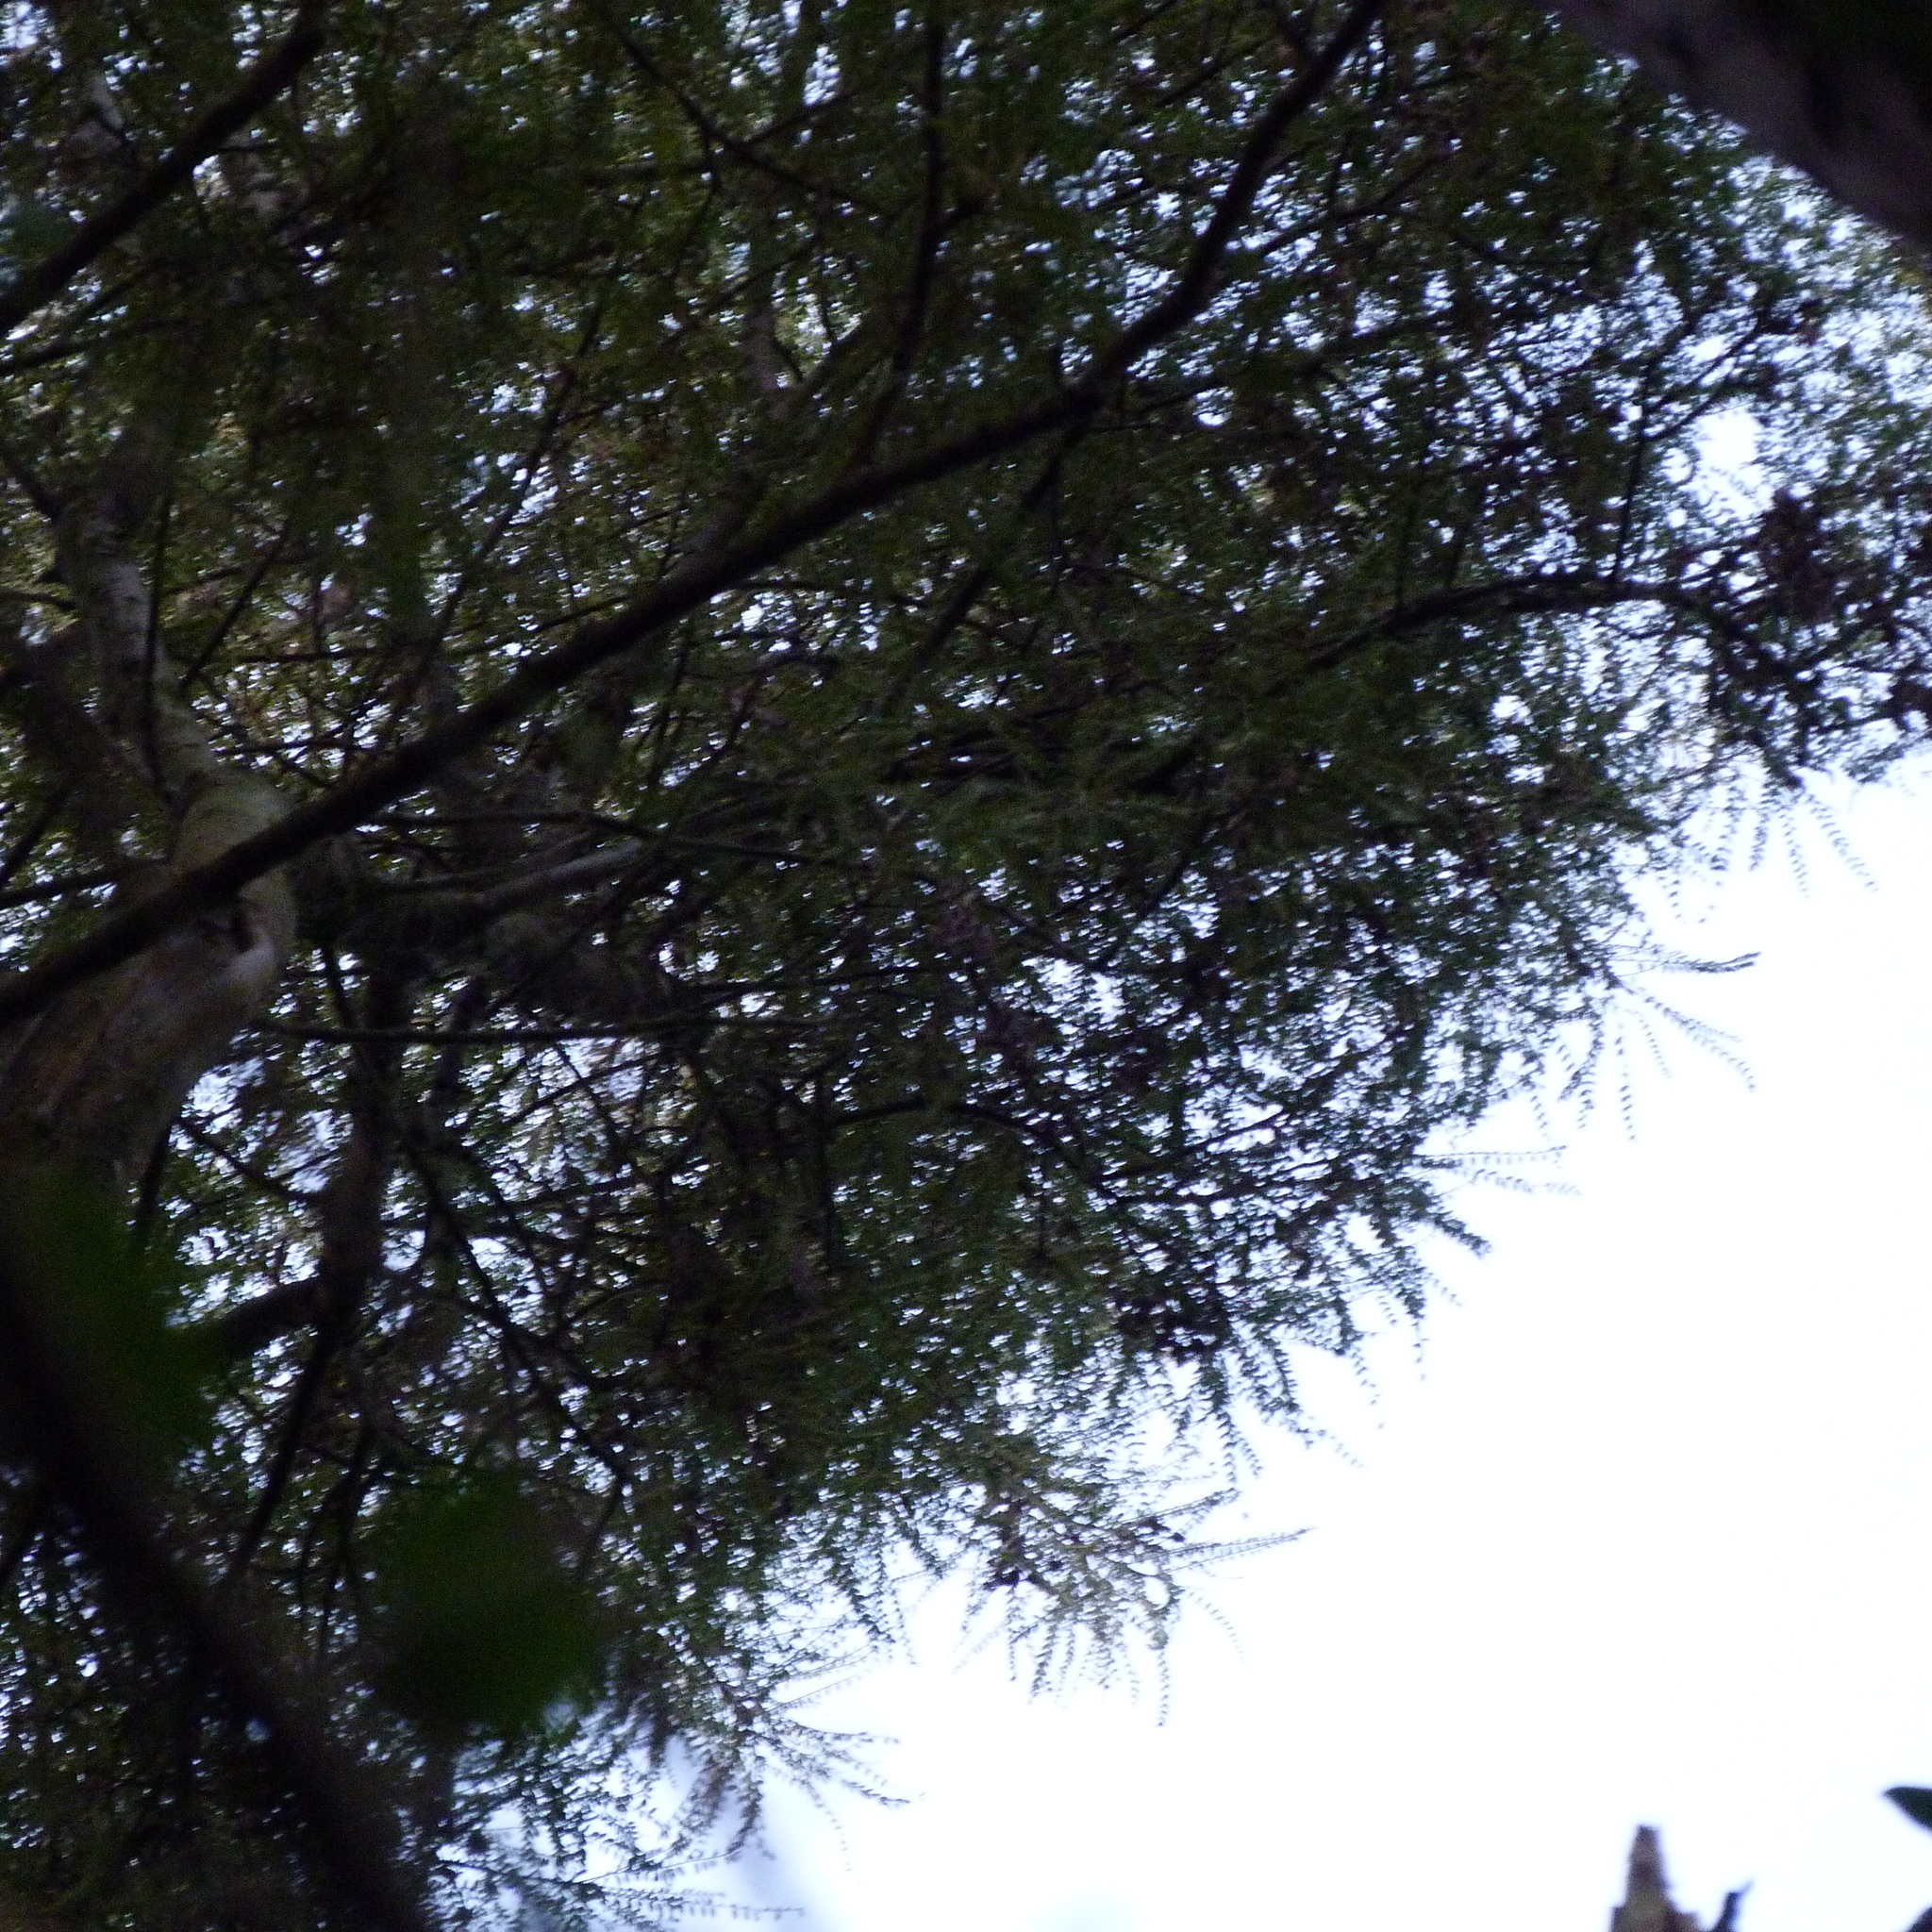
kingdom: Plantae
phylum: Tracheophyta
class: Magnoliopsida
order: Fabales
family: Fabaceae
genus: Sophora
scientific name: Sophora microphylla
